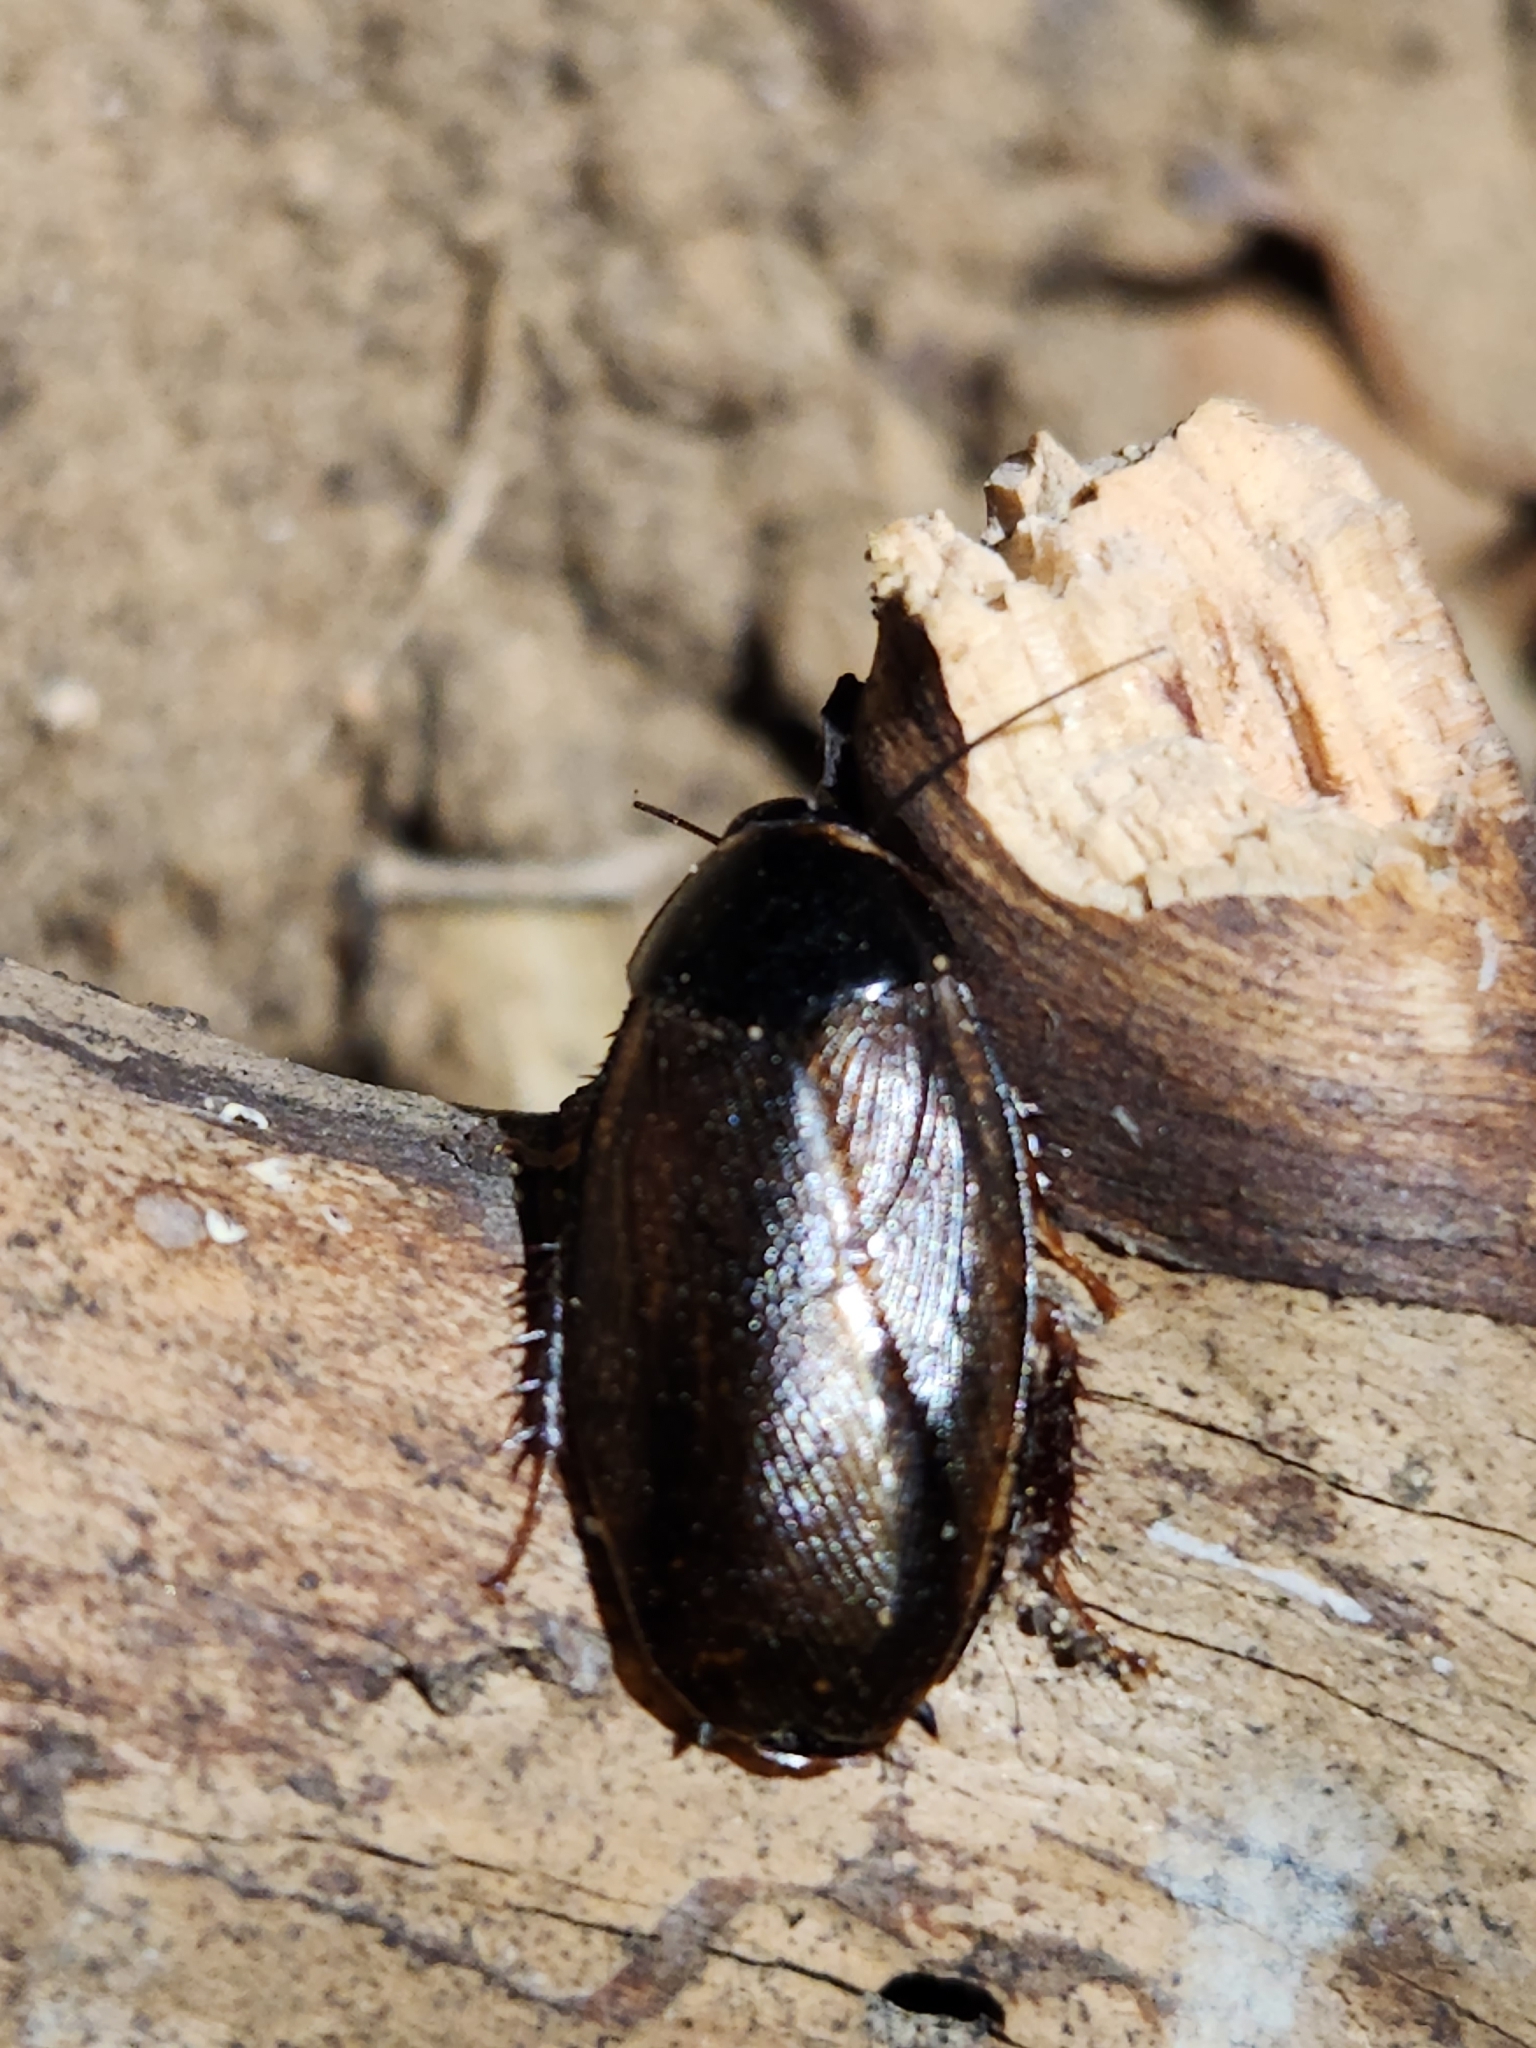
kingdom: Animalia
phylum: Arthropoda
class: Insecta
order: Blattodea
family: Blaberidae
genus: Pycnoscelus
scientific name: Pycnoscelus surinamensis
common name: Surinam cockroach
